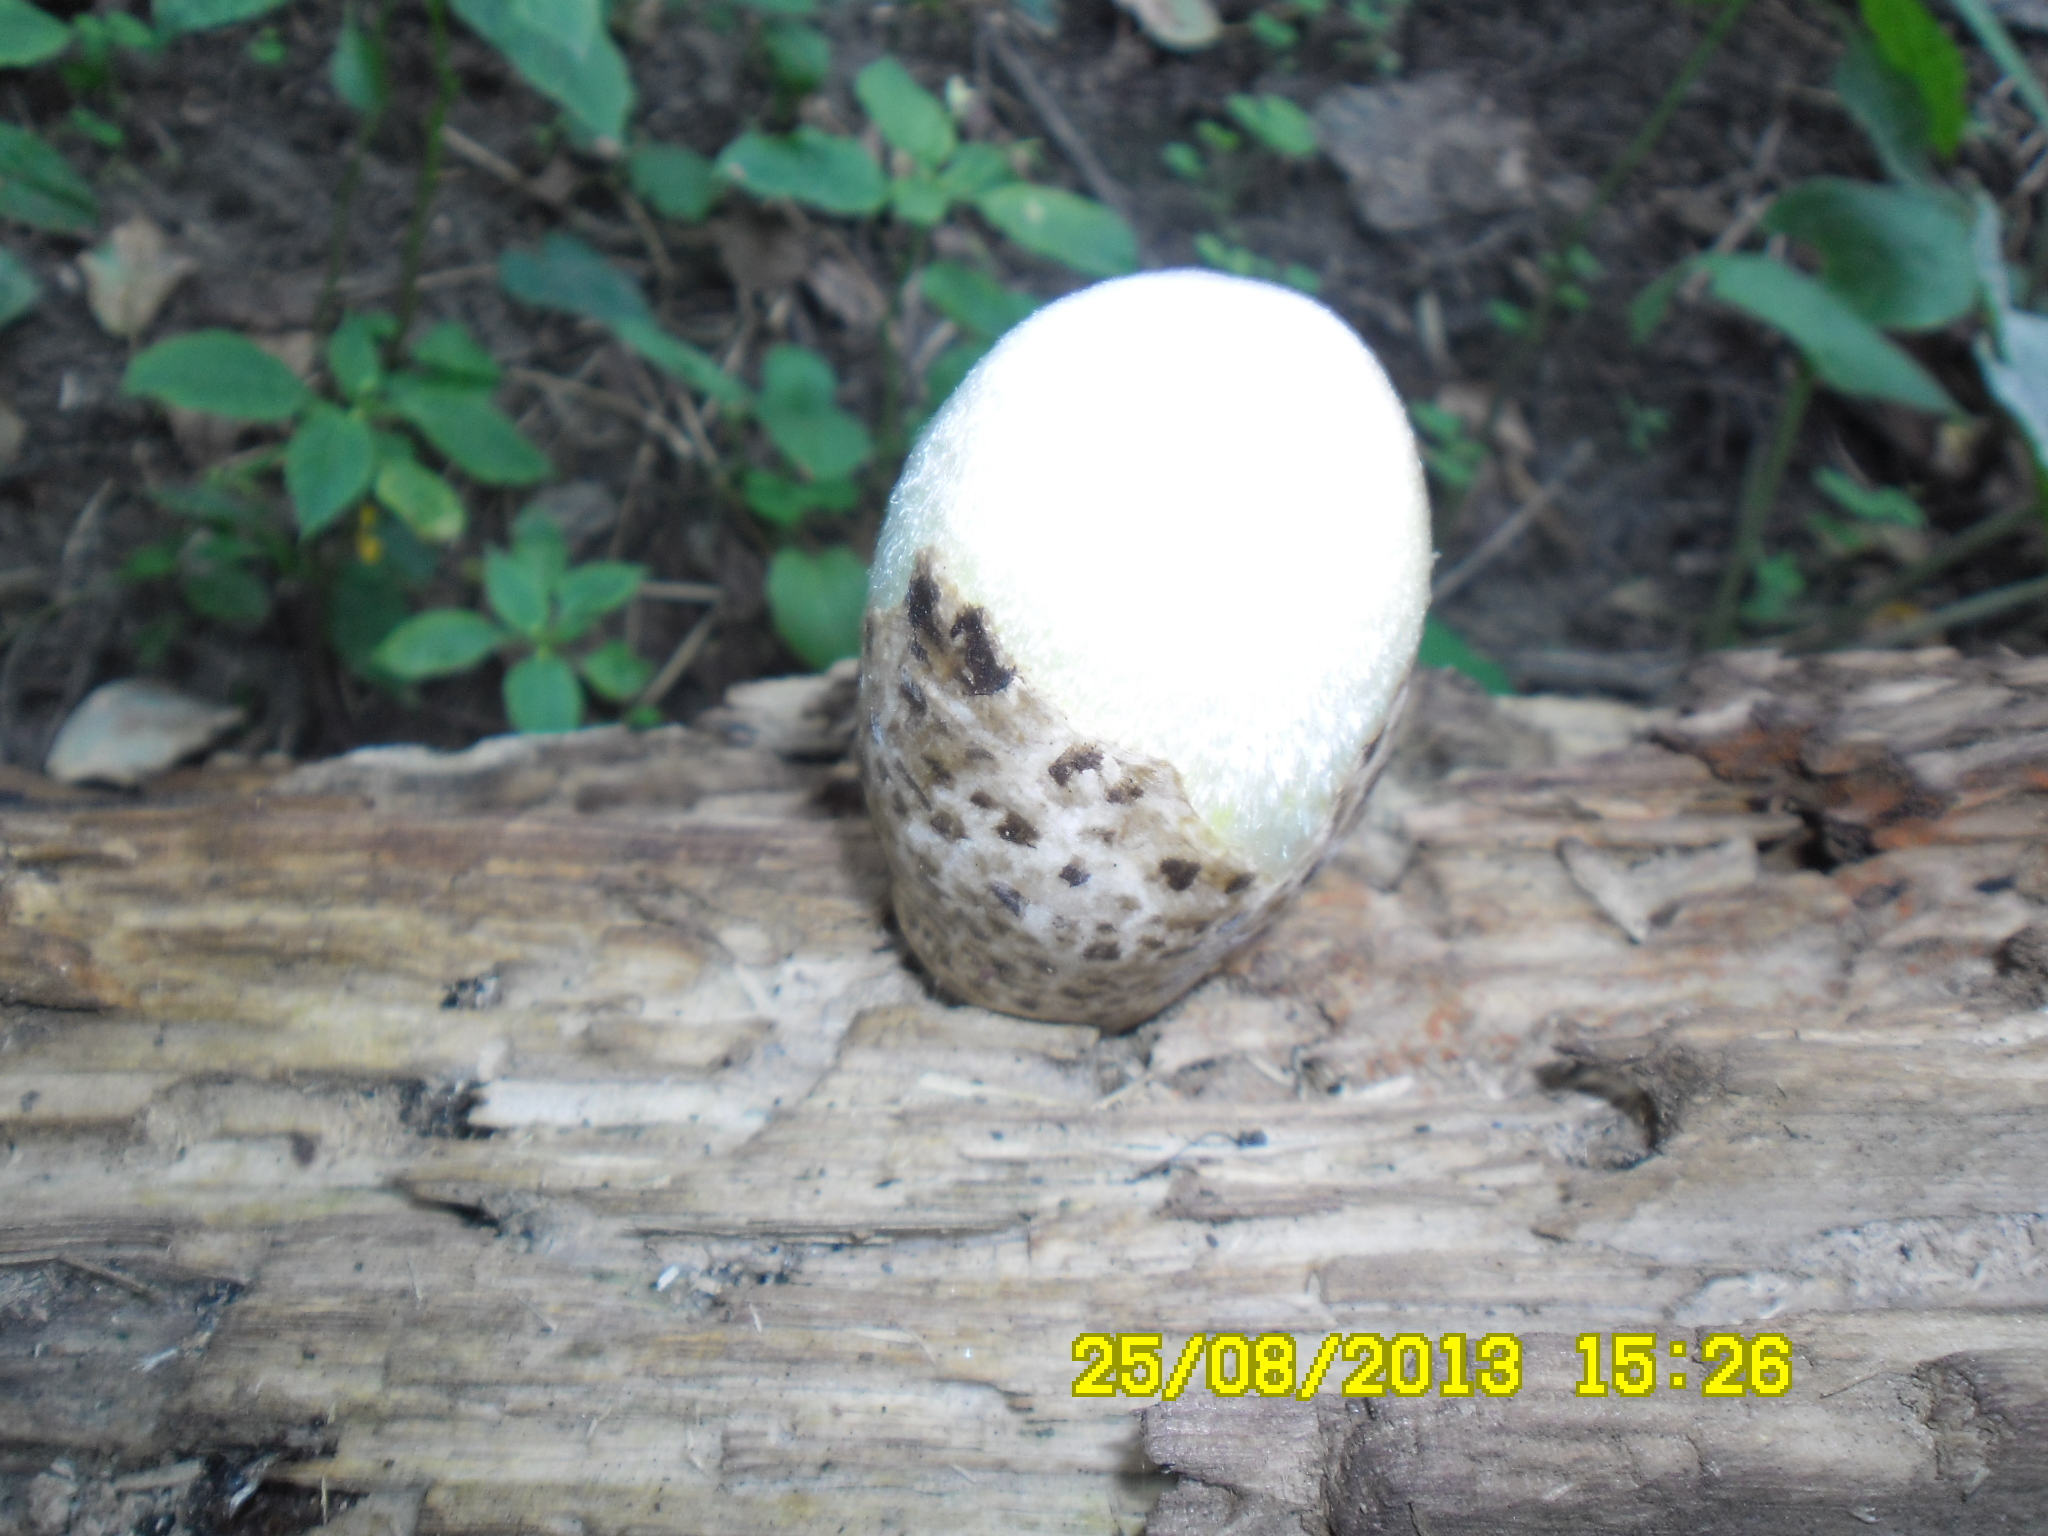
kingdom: Fungi
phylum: Basidiomycota
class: Agaricomycetes
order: Agaricales
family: Pluteaceae
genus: Volvariella
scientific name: Volvariella bombycina
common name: Silky rosegill
